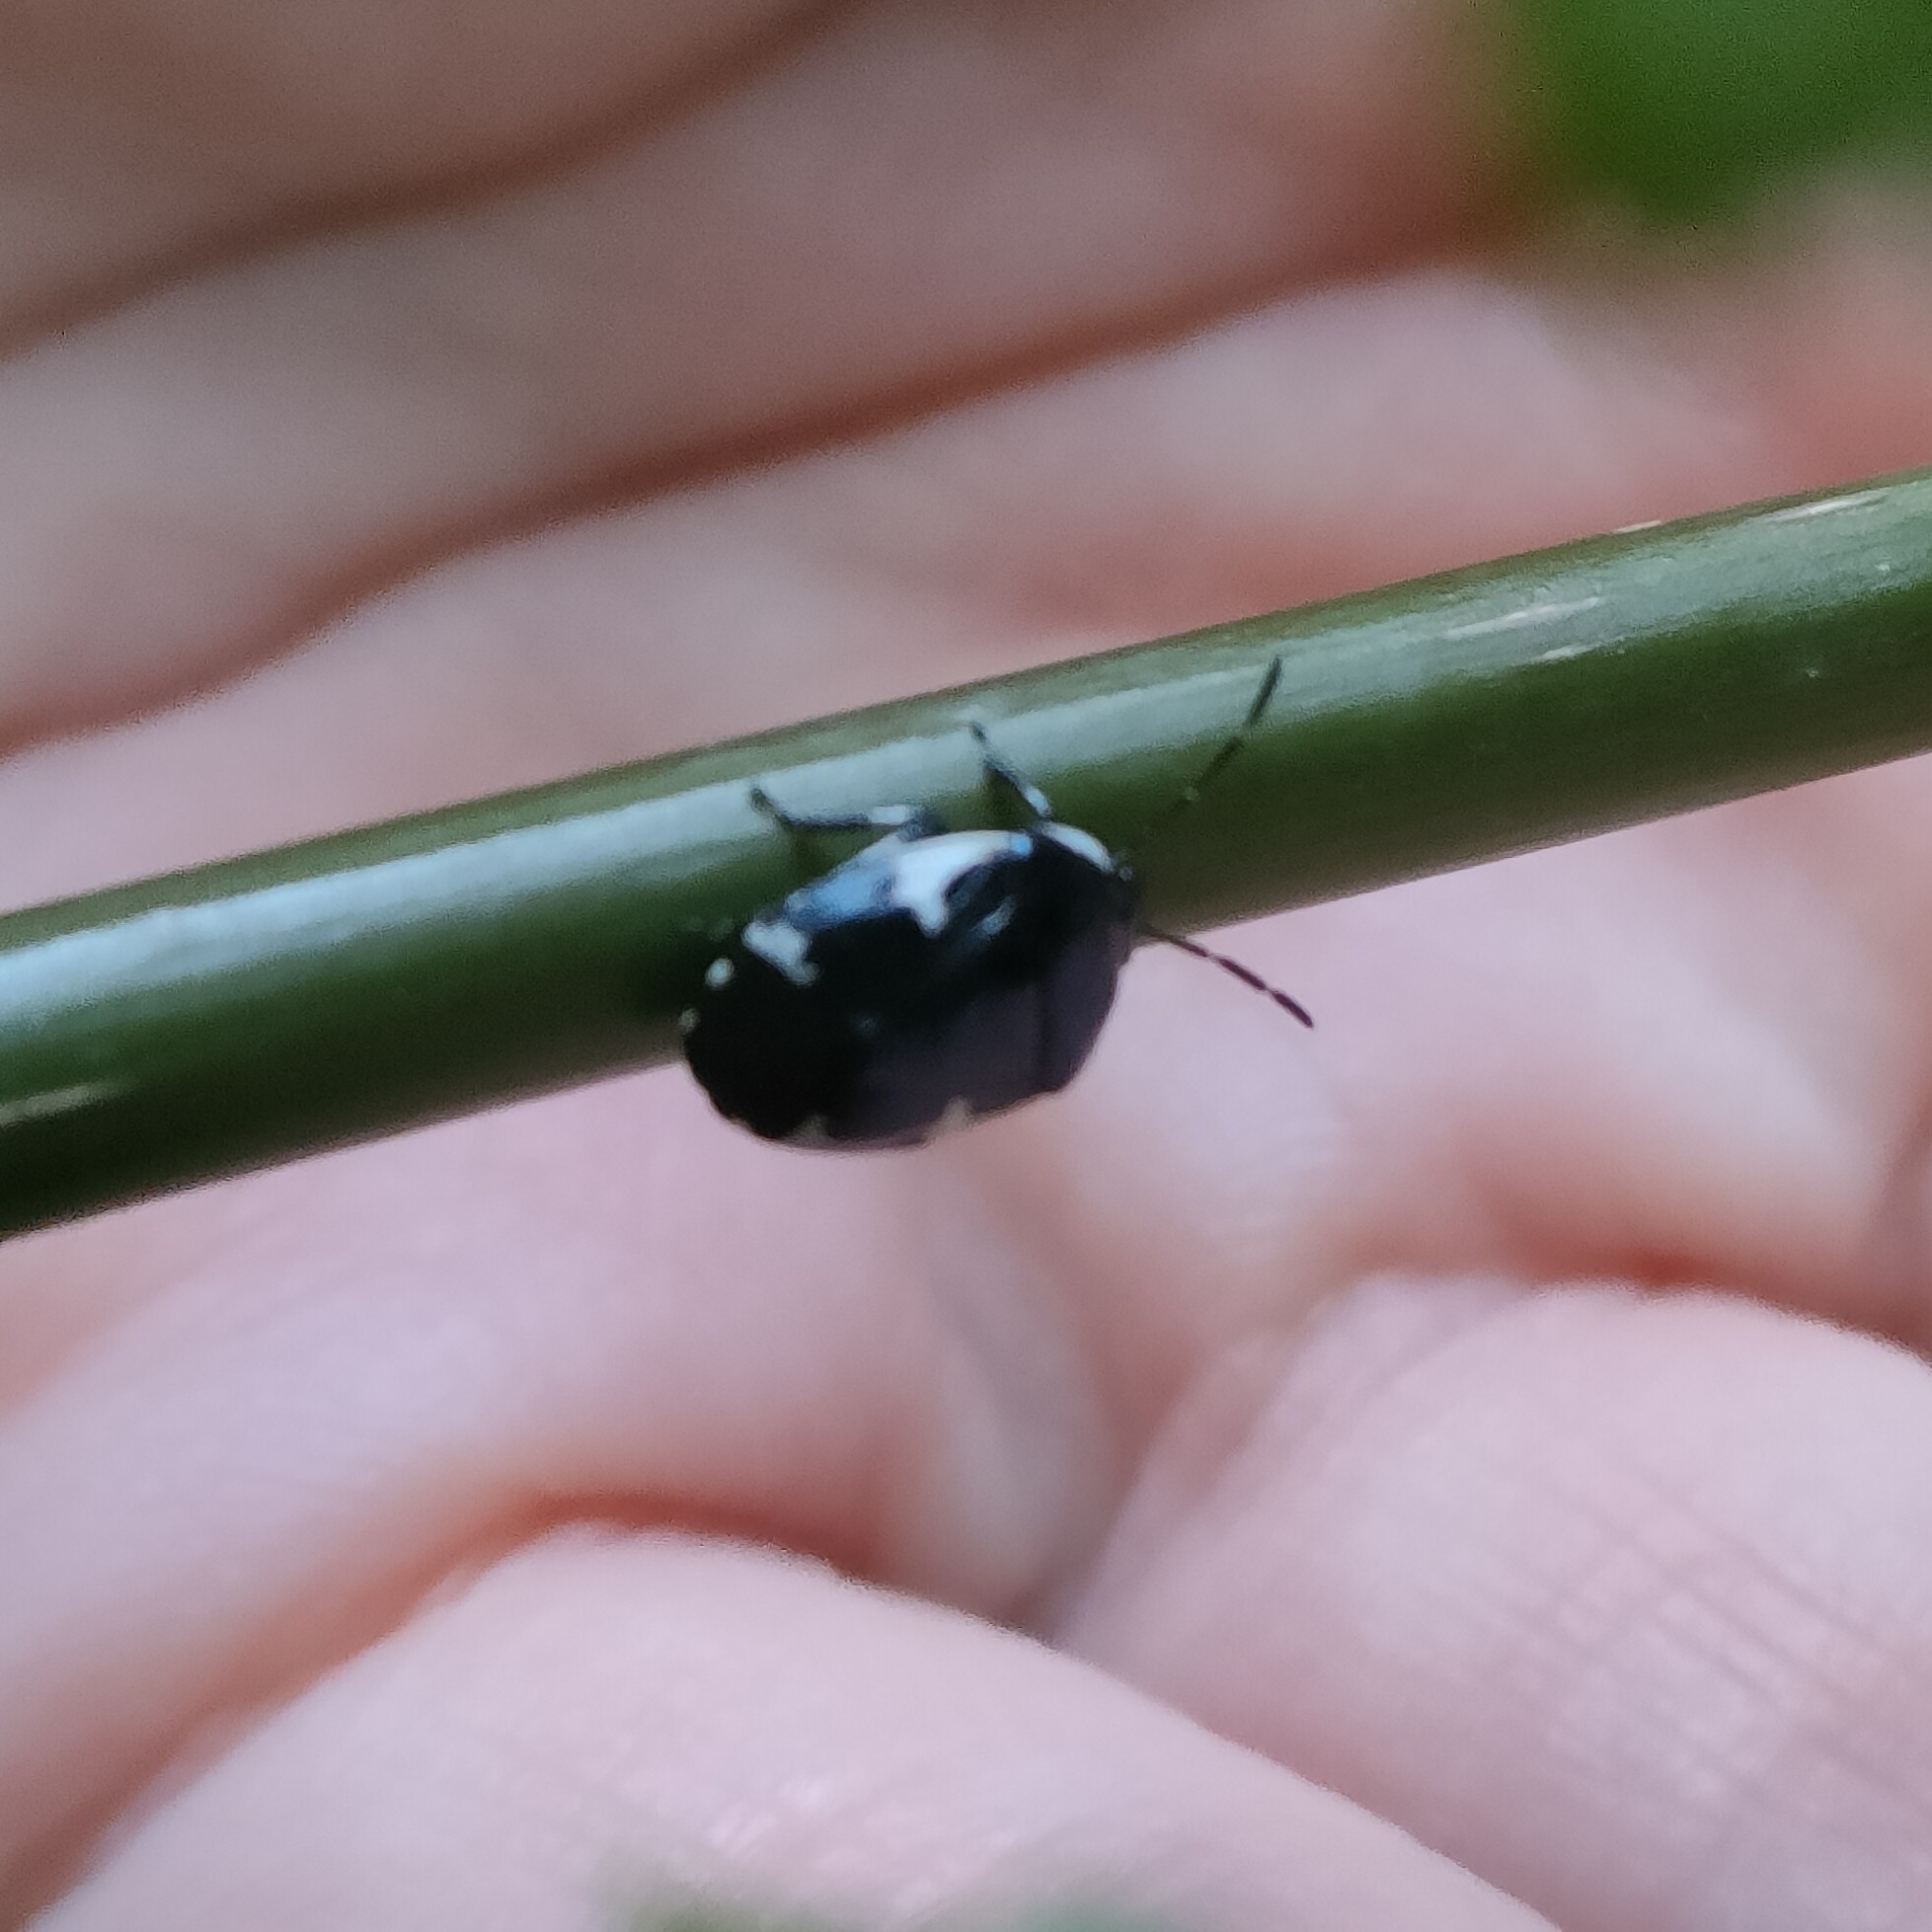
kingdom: Animalia
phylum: Arthropoda
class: Insecta
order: Hemiptera
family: Cydnidae
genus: Tritomegas
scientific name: Tritomegas sexmaculatus
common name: Rambur's pied shieldbug
